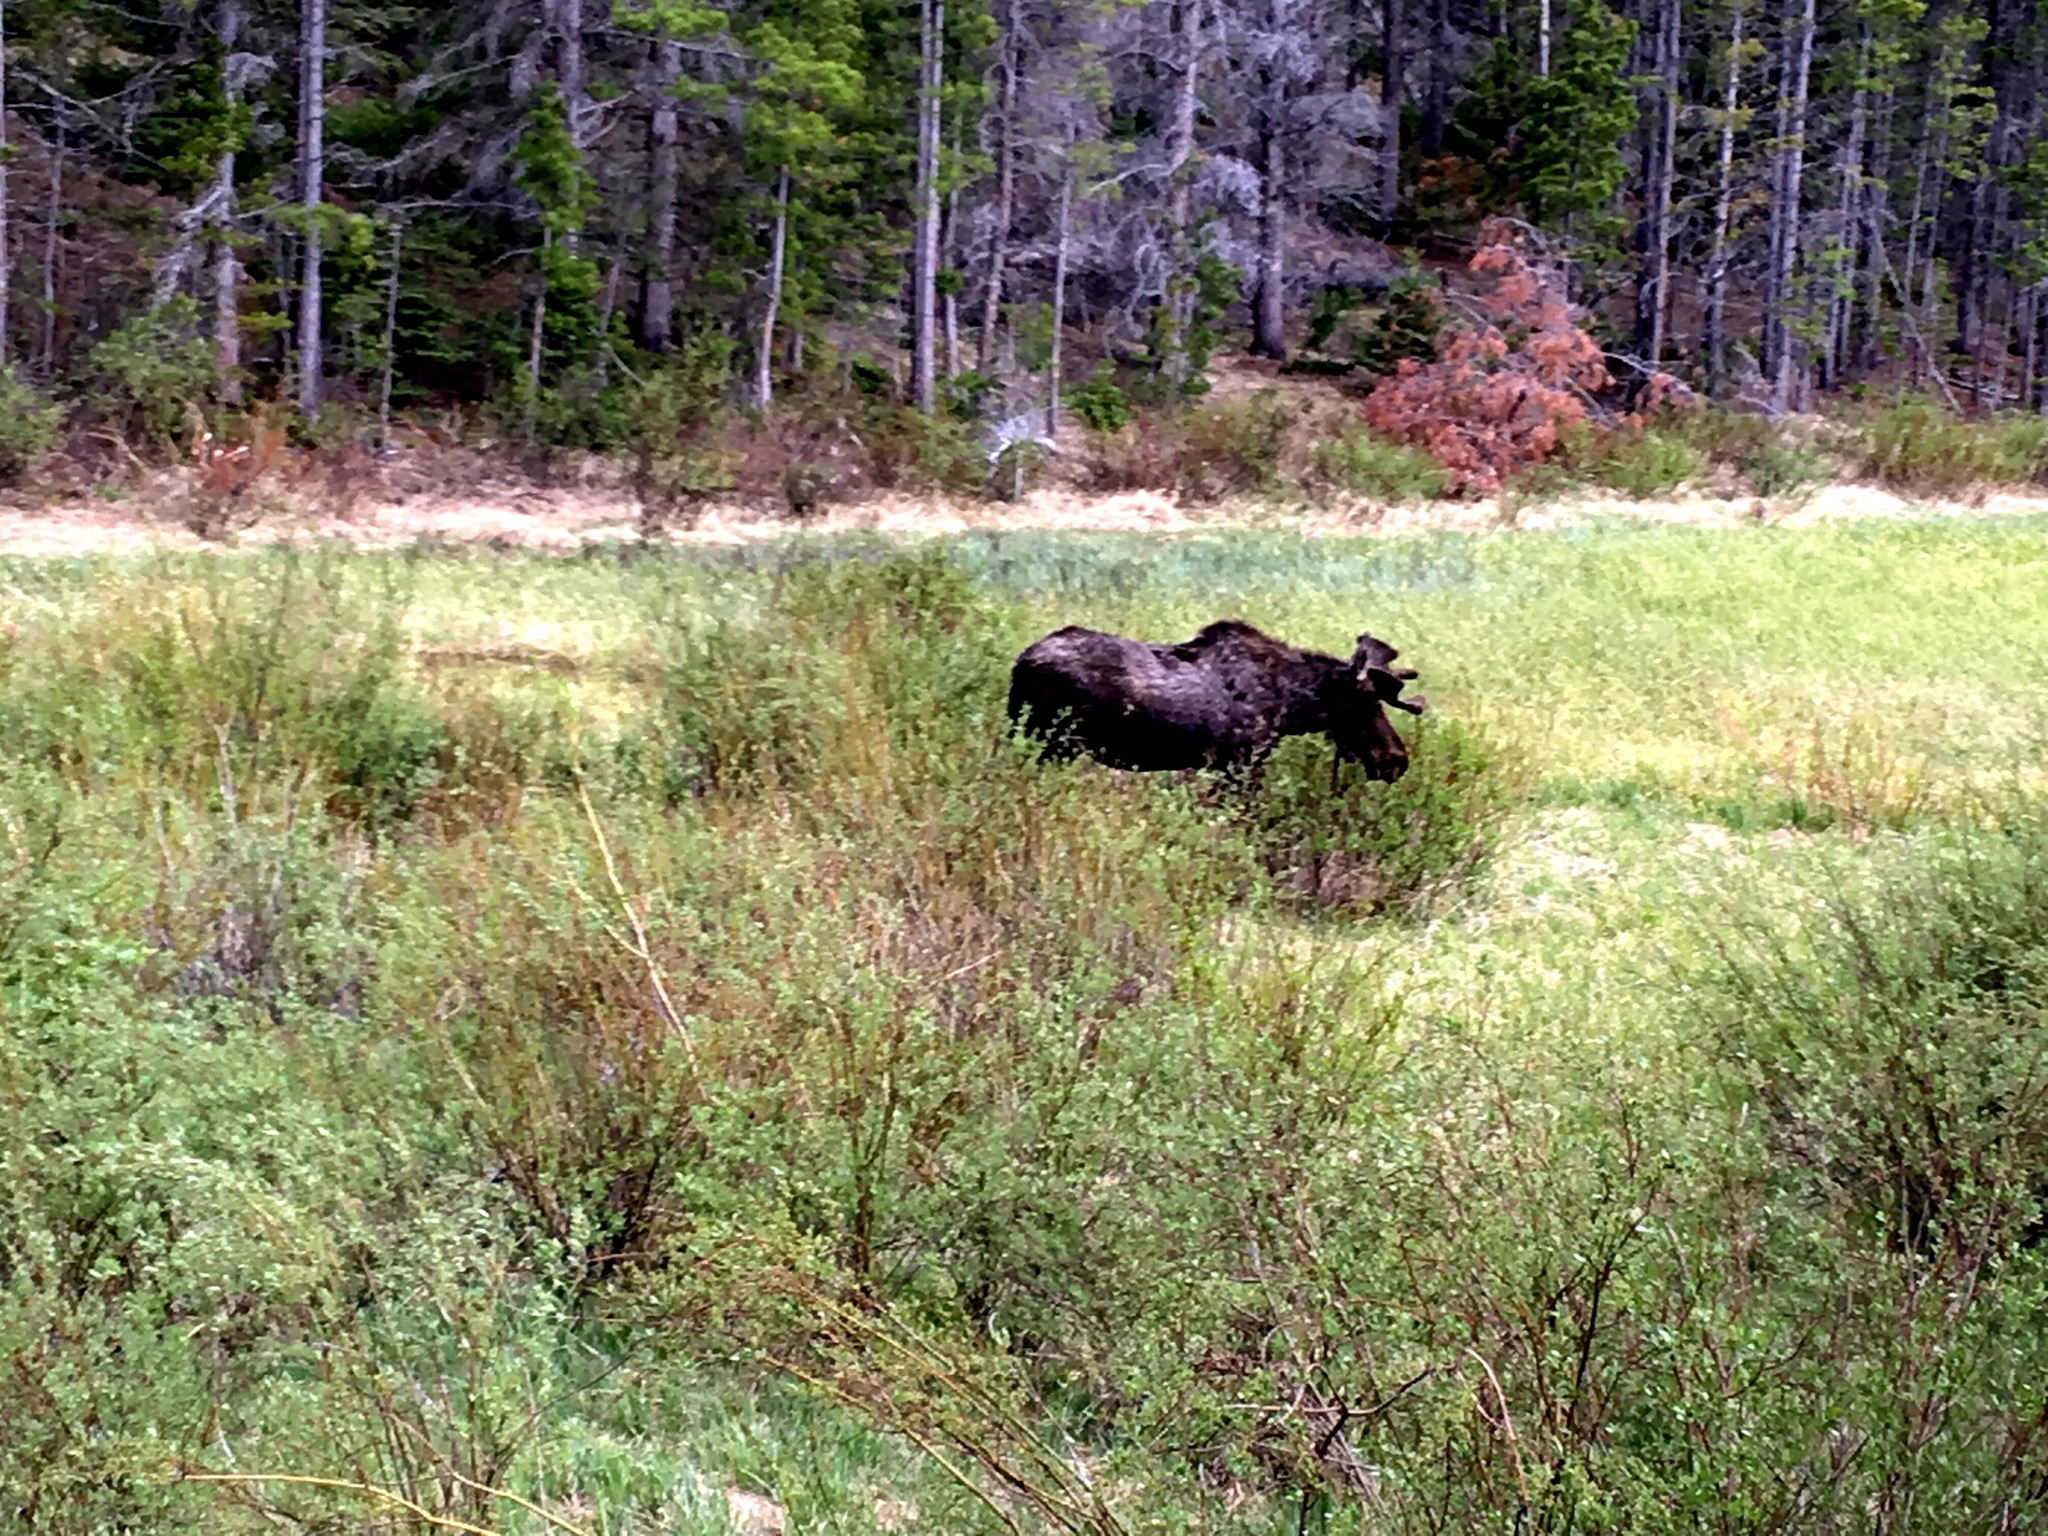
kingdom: Animalia
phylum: Chordata
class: Mammalia
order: Artiodactyla
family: Cervidae
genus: Alces
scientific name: Alces alces
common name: Moose
